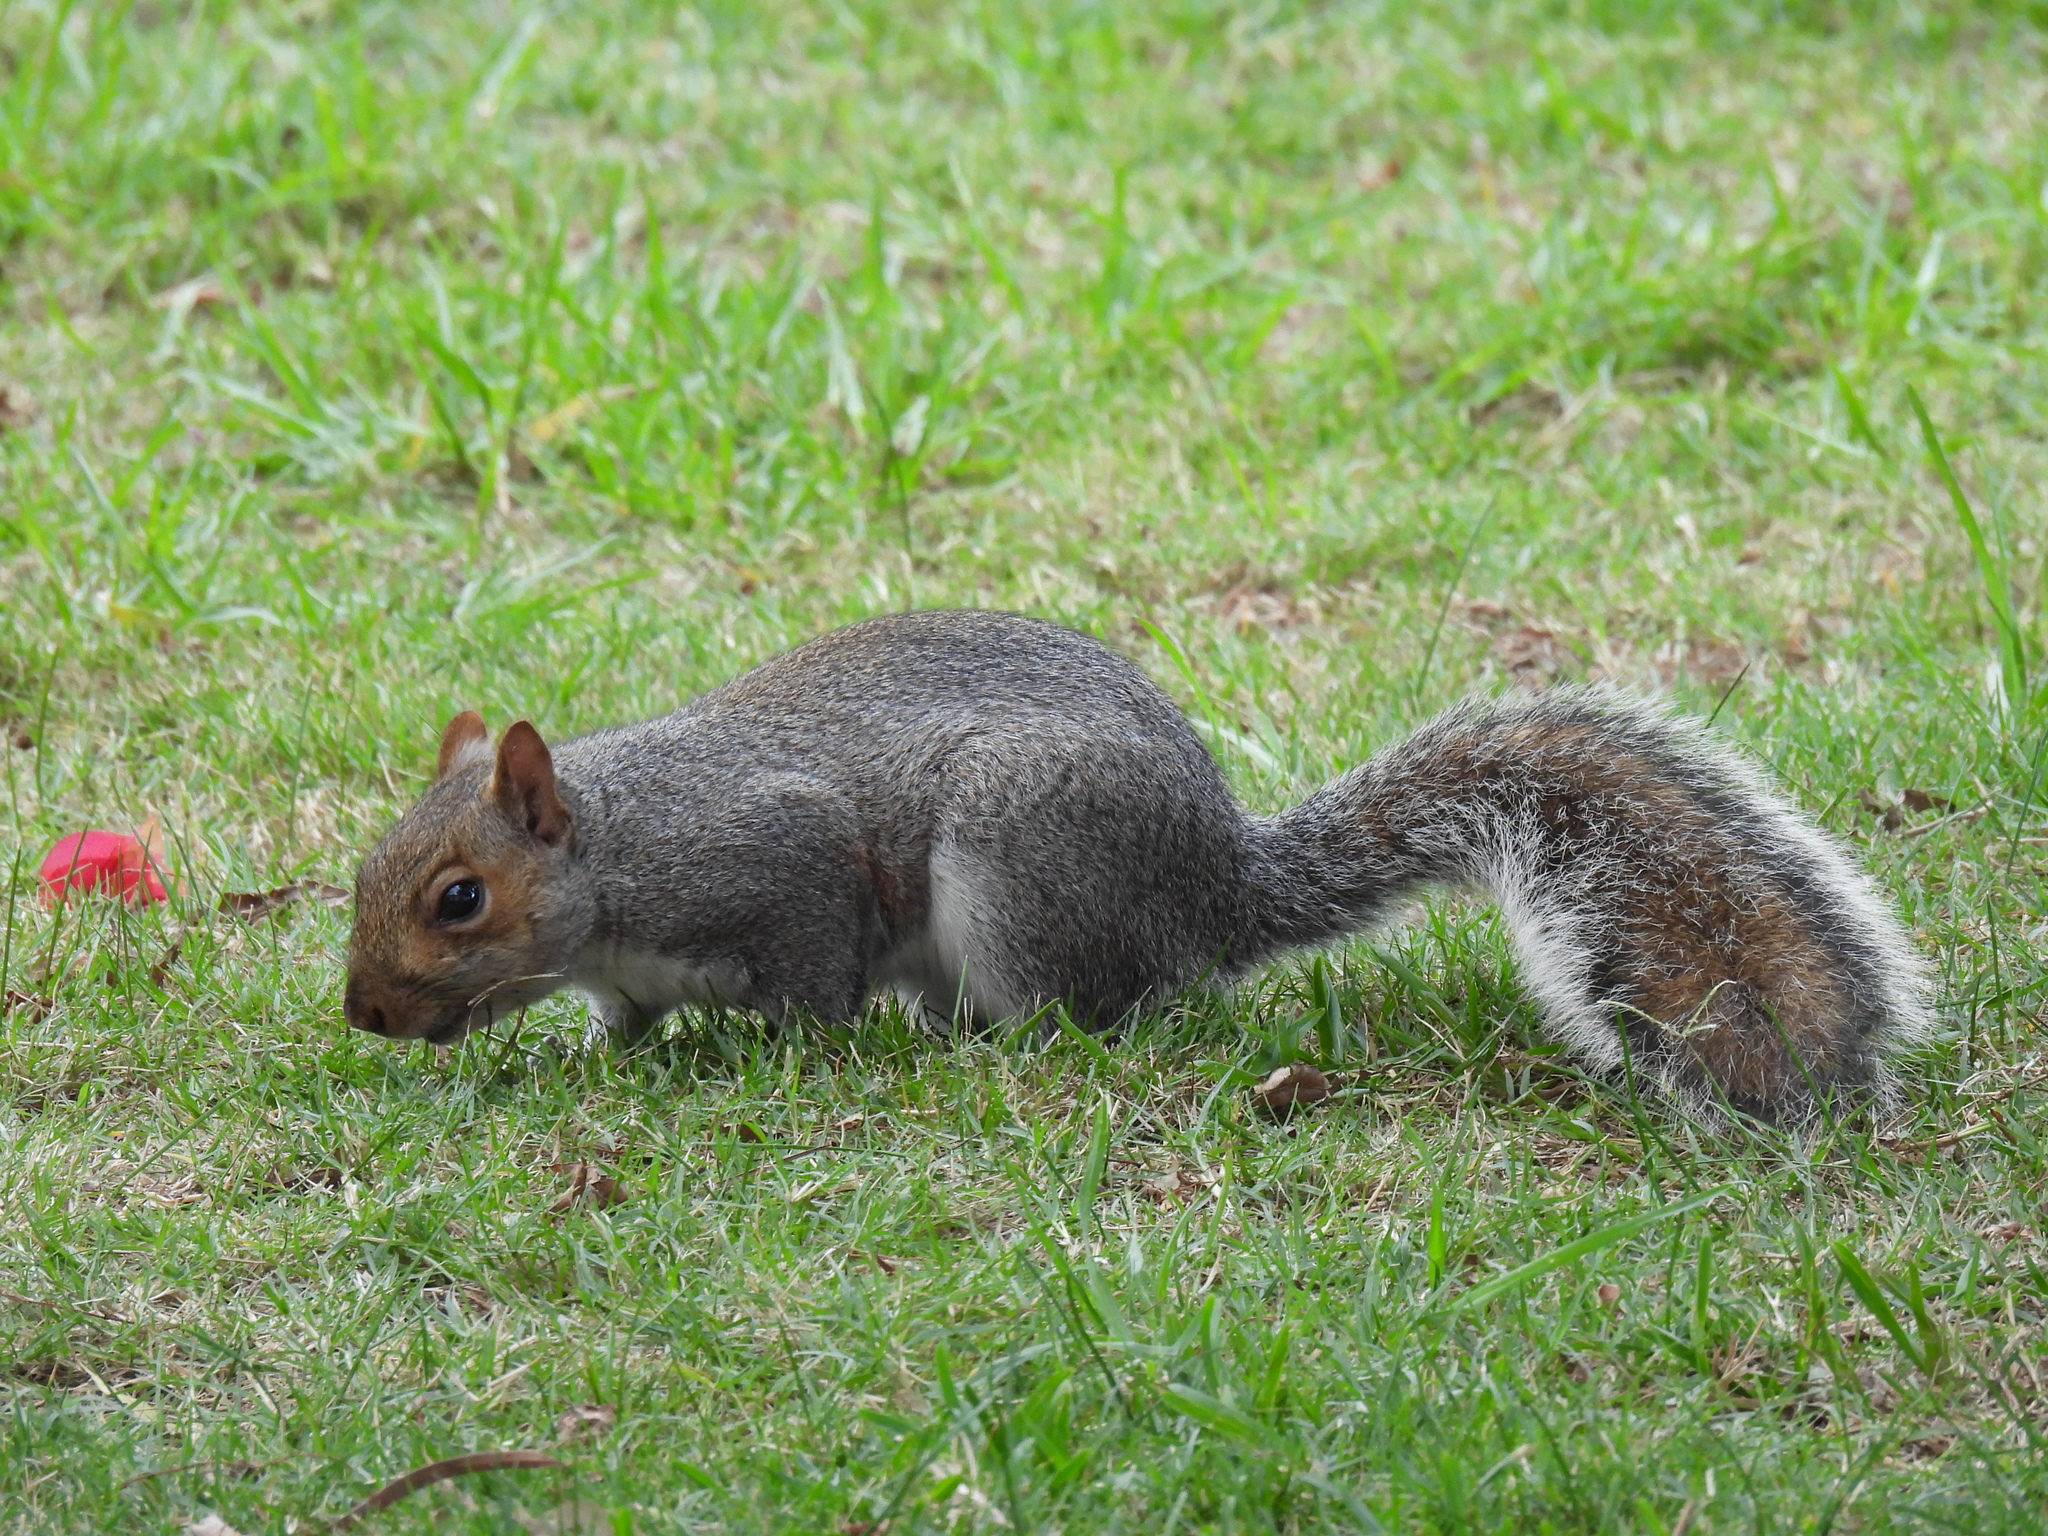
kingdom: Animalia
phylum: Chordata
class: Mammalia
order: Rodentia
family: Sciuridae
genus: Sciurus
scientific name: Sciurus carolinensis
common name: Eastern gray squirrel
